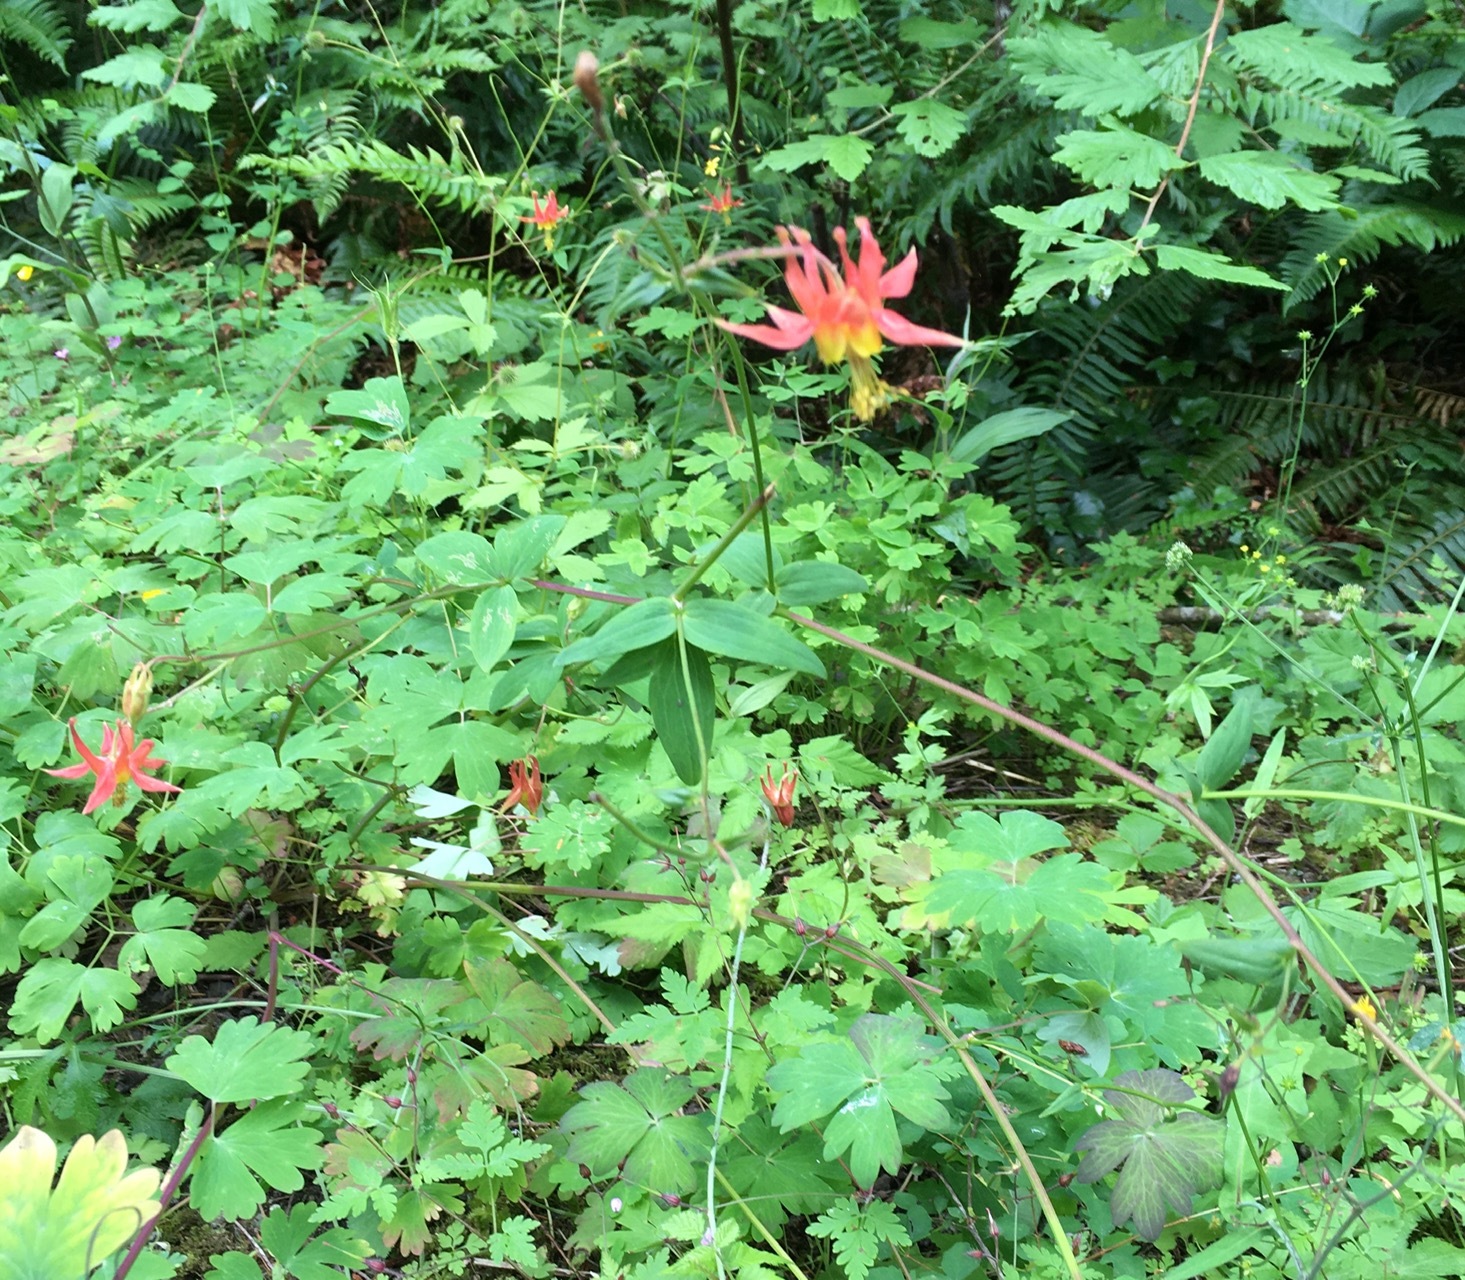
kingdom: Plantae
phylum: Tracheophyta
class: Magnoliopsida
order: Ranunculales
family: Ranunculaceae
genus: Aquilegia
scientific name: Aquilegia formosa
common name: Sitka columbine
